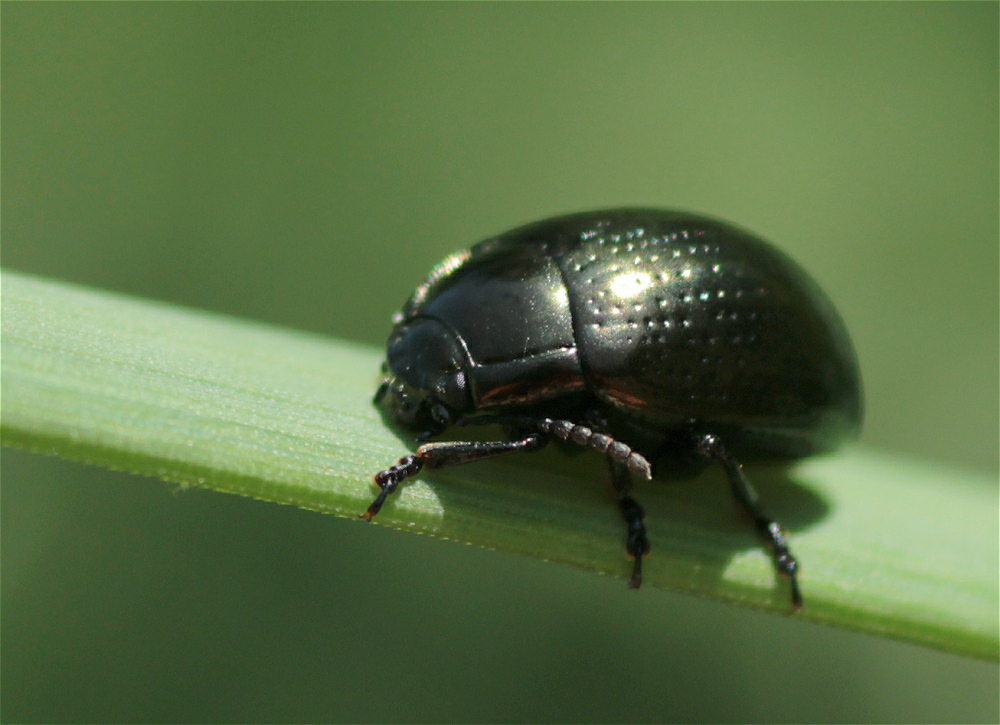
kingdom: Animalia
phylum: Arthropoda
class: Insecta
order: Coleoptera
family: Chrysomelidae
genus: Chrysolina
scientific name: Chrysolina oricalcia
